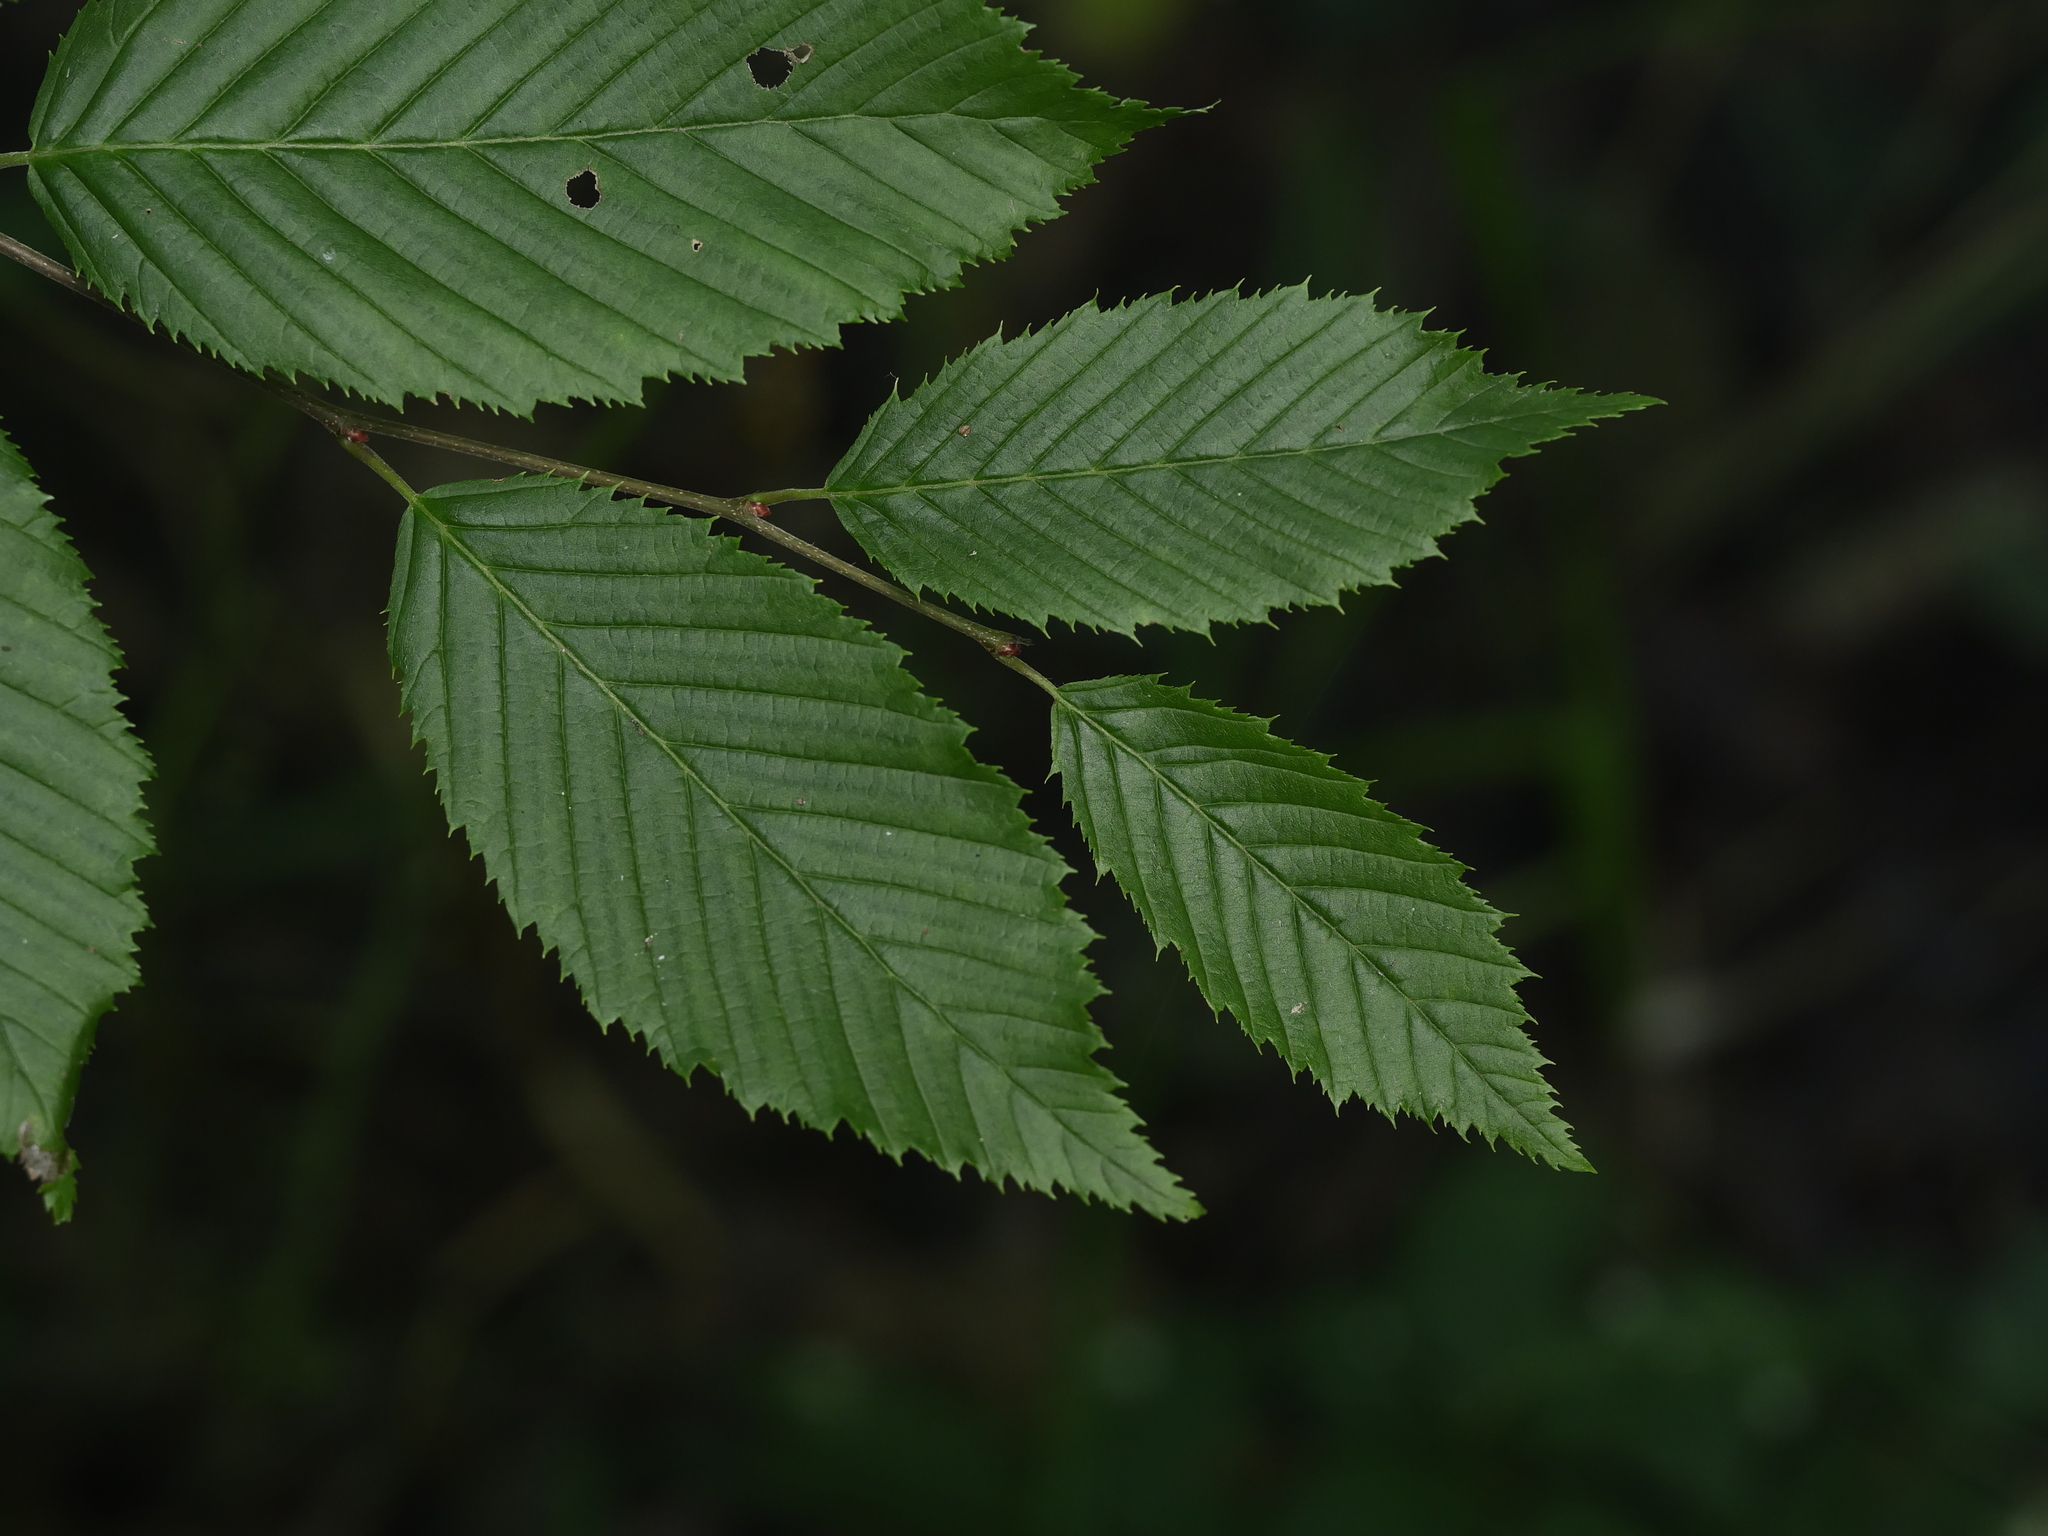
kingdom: Plantae
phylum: Tracheophyta
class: Magnoliopsida
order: Fagales
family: Betulaceae
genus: Carpinus
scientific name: Carpinus betulus
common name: Hornbeam
